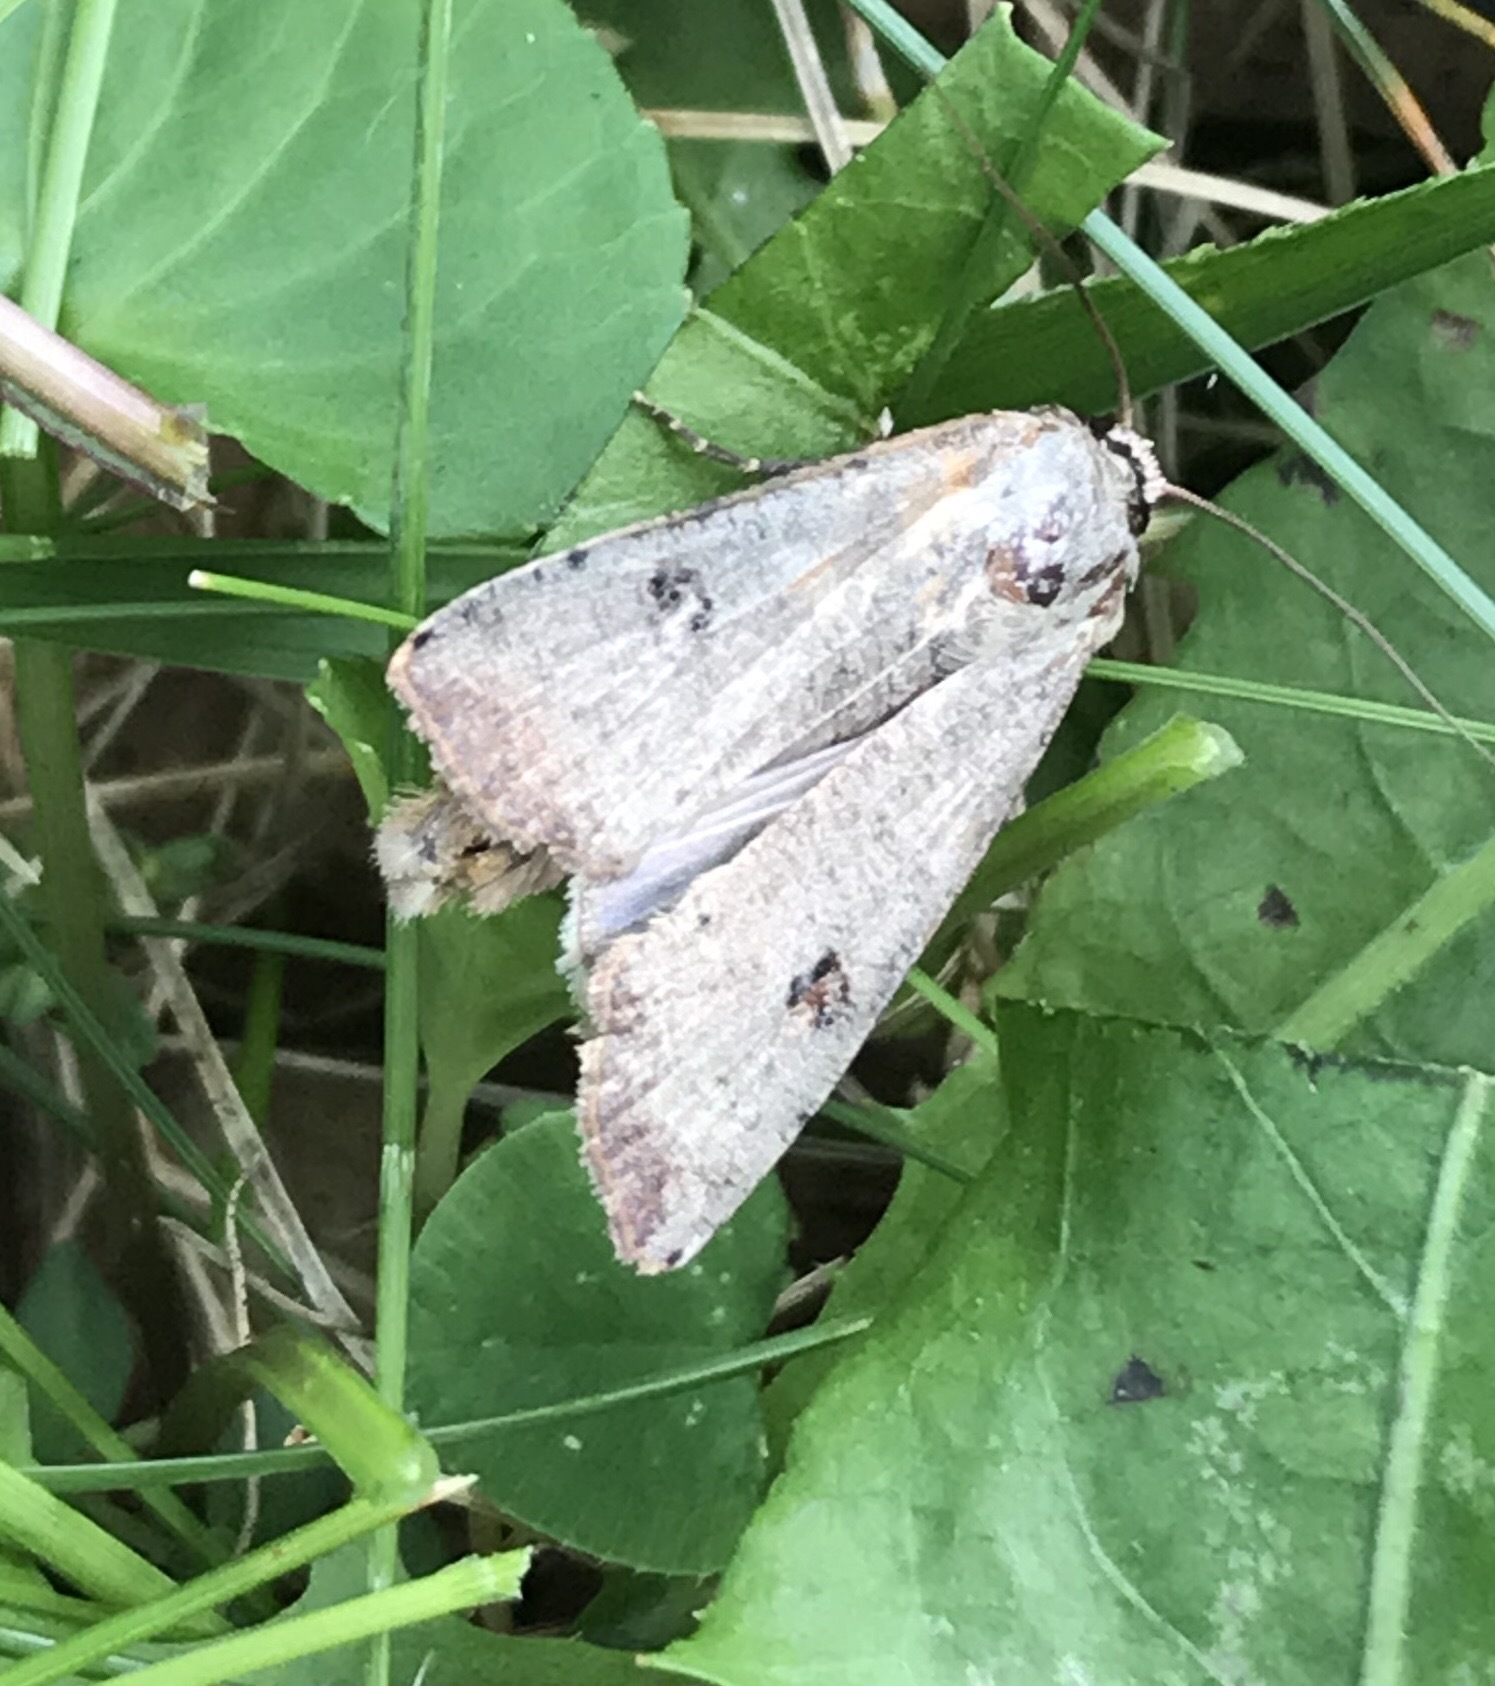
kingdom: Animalia
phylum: Arthropoda
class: Insecta
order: Lepidoptera
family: Noctuidae
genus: Anicla
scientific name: Anicla infecta
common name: Green cutworm
